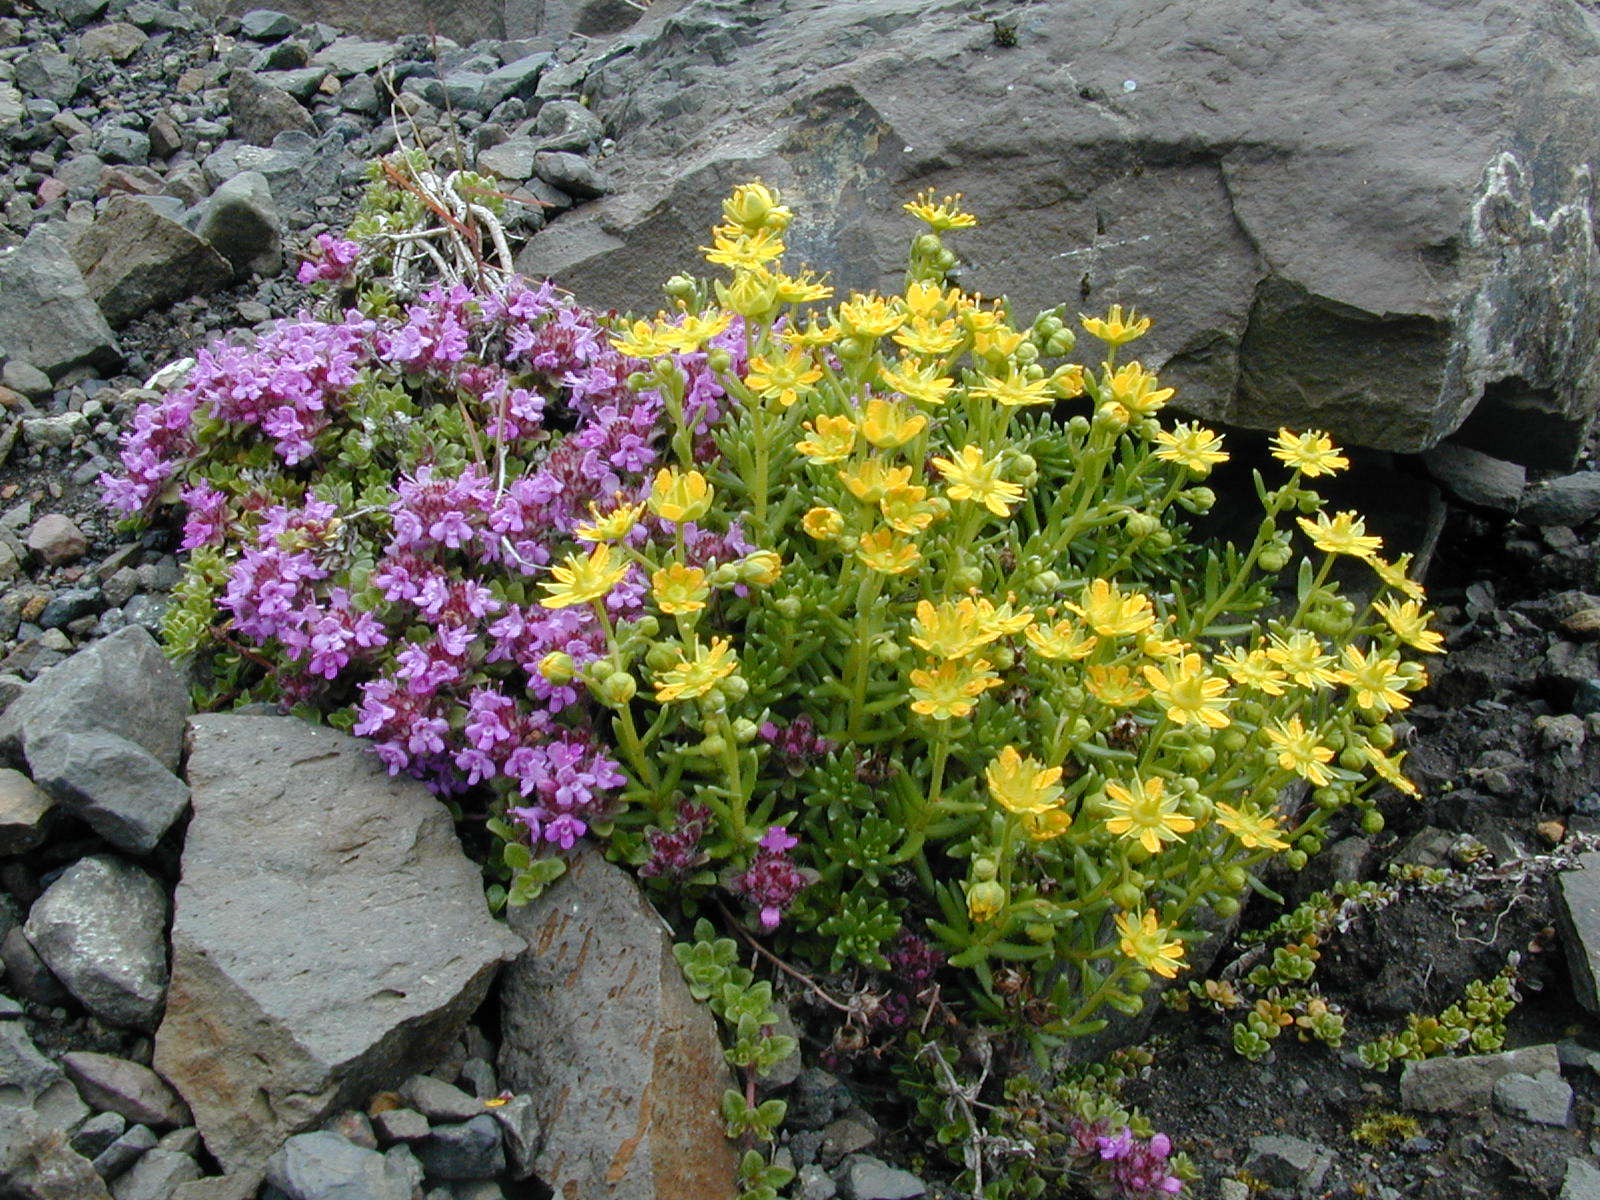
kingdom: Plantae
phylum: Tracheophyta
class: Magnoliopsida
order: Saxifragales
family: Saxifragaceae
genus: Saxifraga
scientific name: Saxifraga aizoides
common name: Yellow mountain saxifrage
